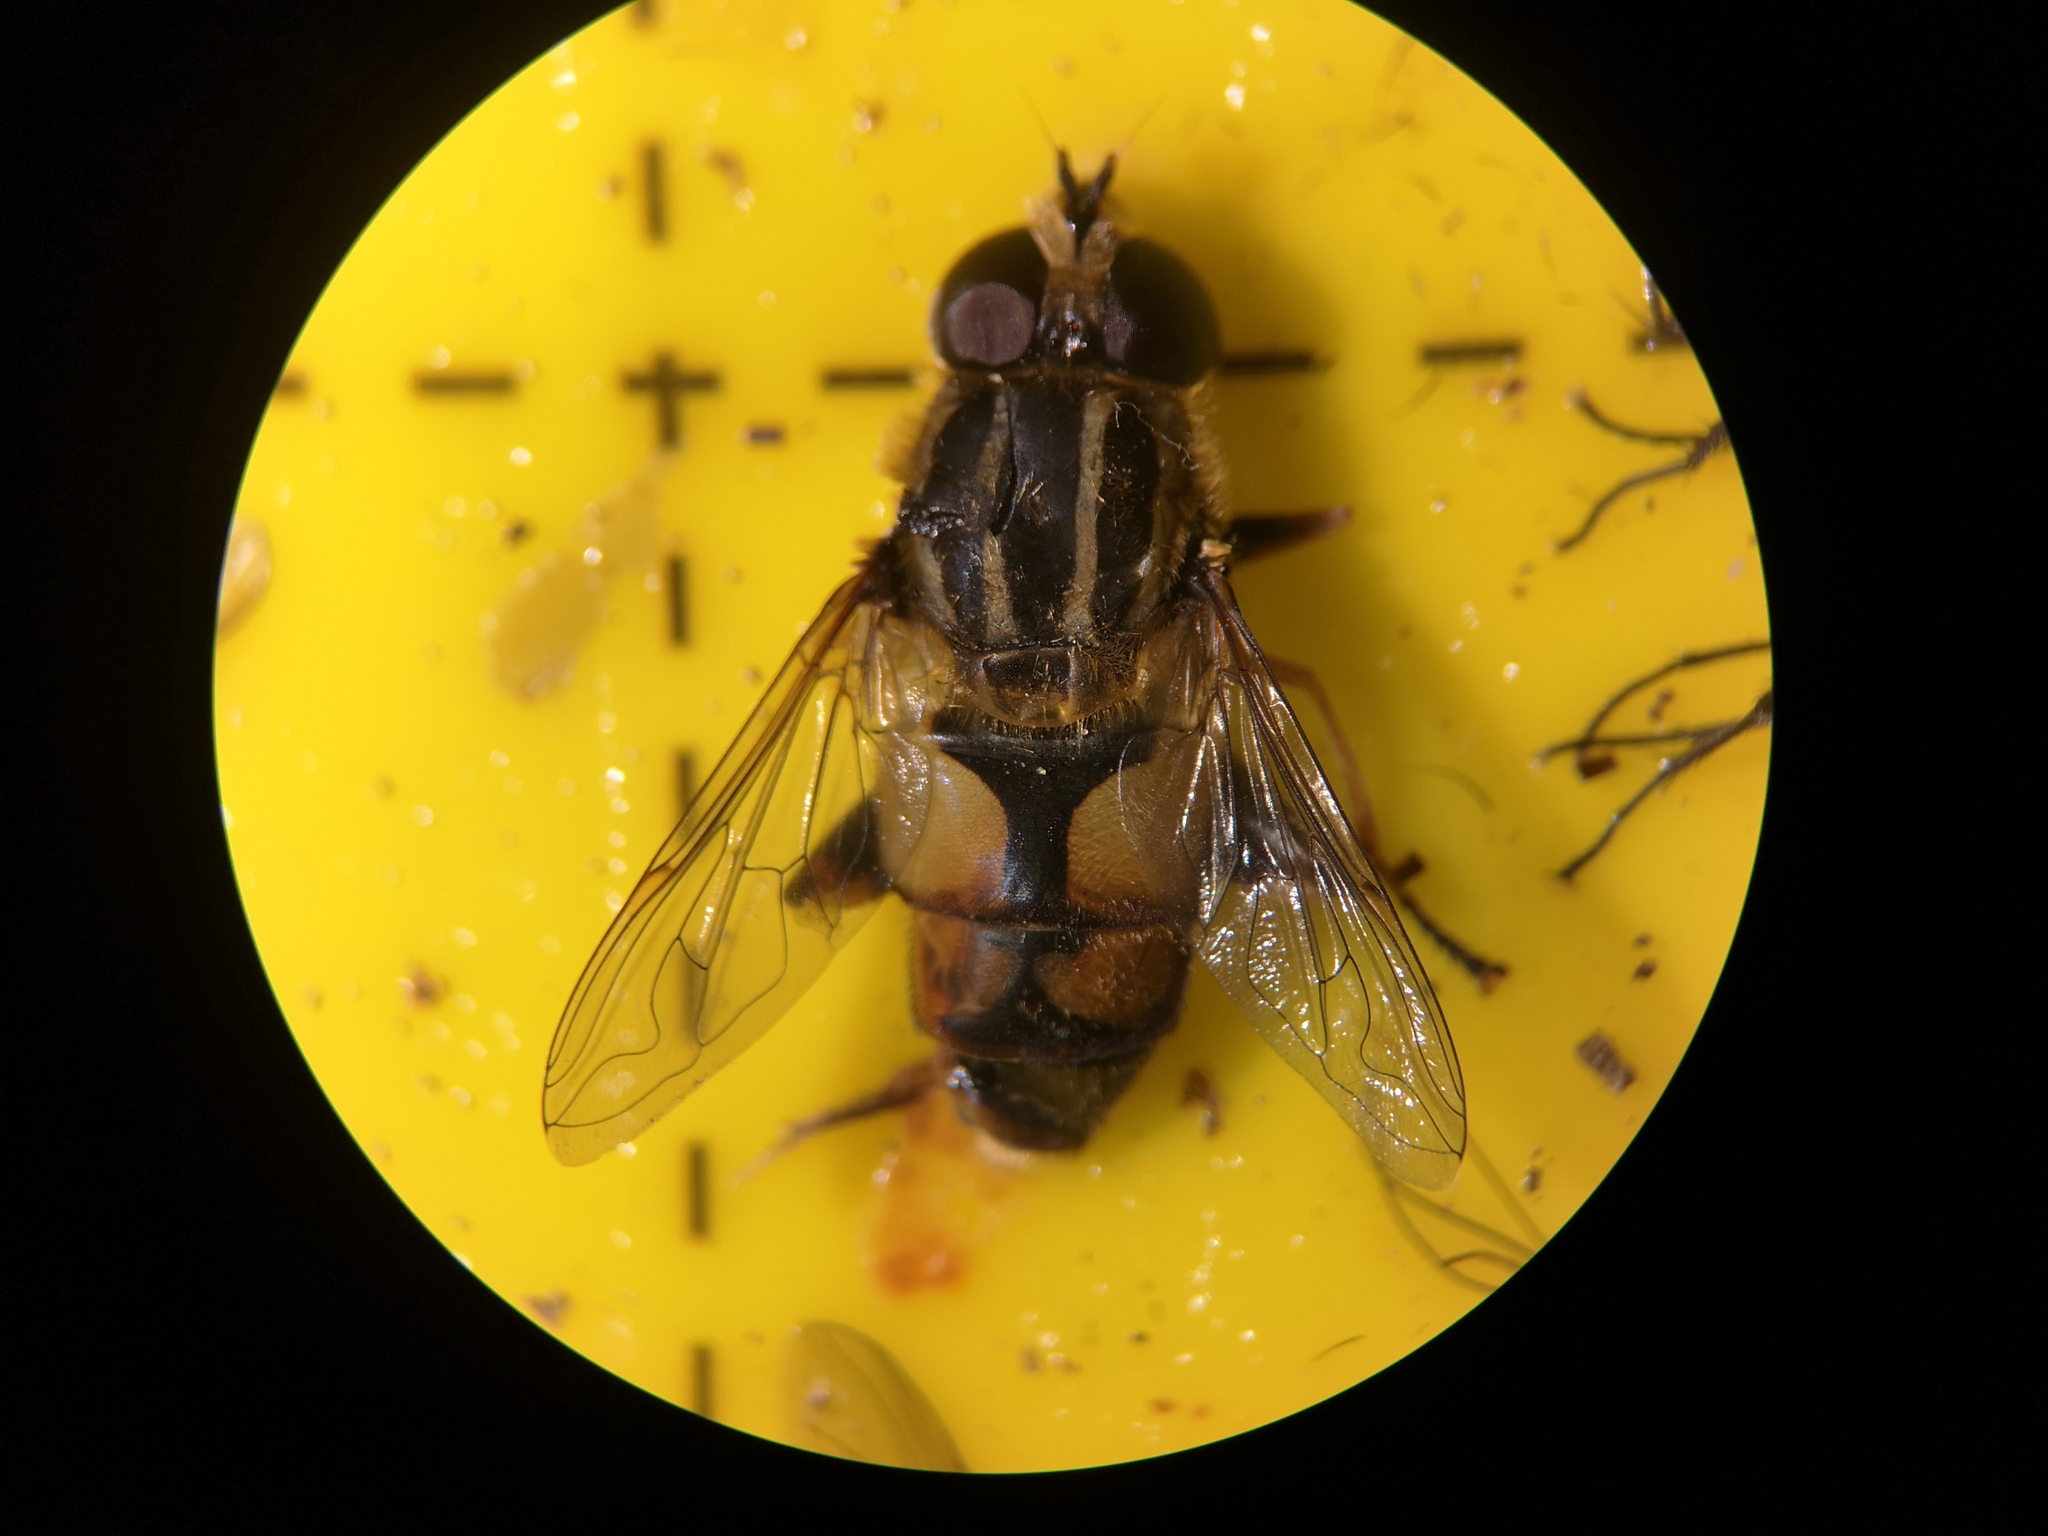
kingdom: Animalia
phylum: Arthropoda
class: Insecta
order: Diptera
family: Syrphidae
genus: Helophilus
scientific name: Helophilus hybridus
